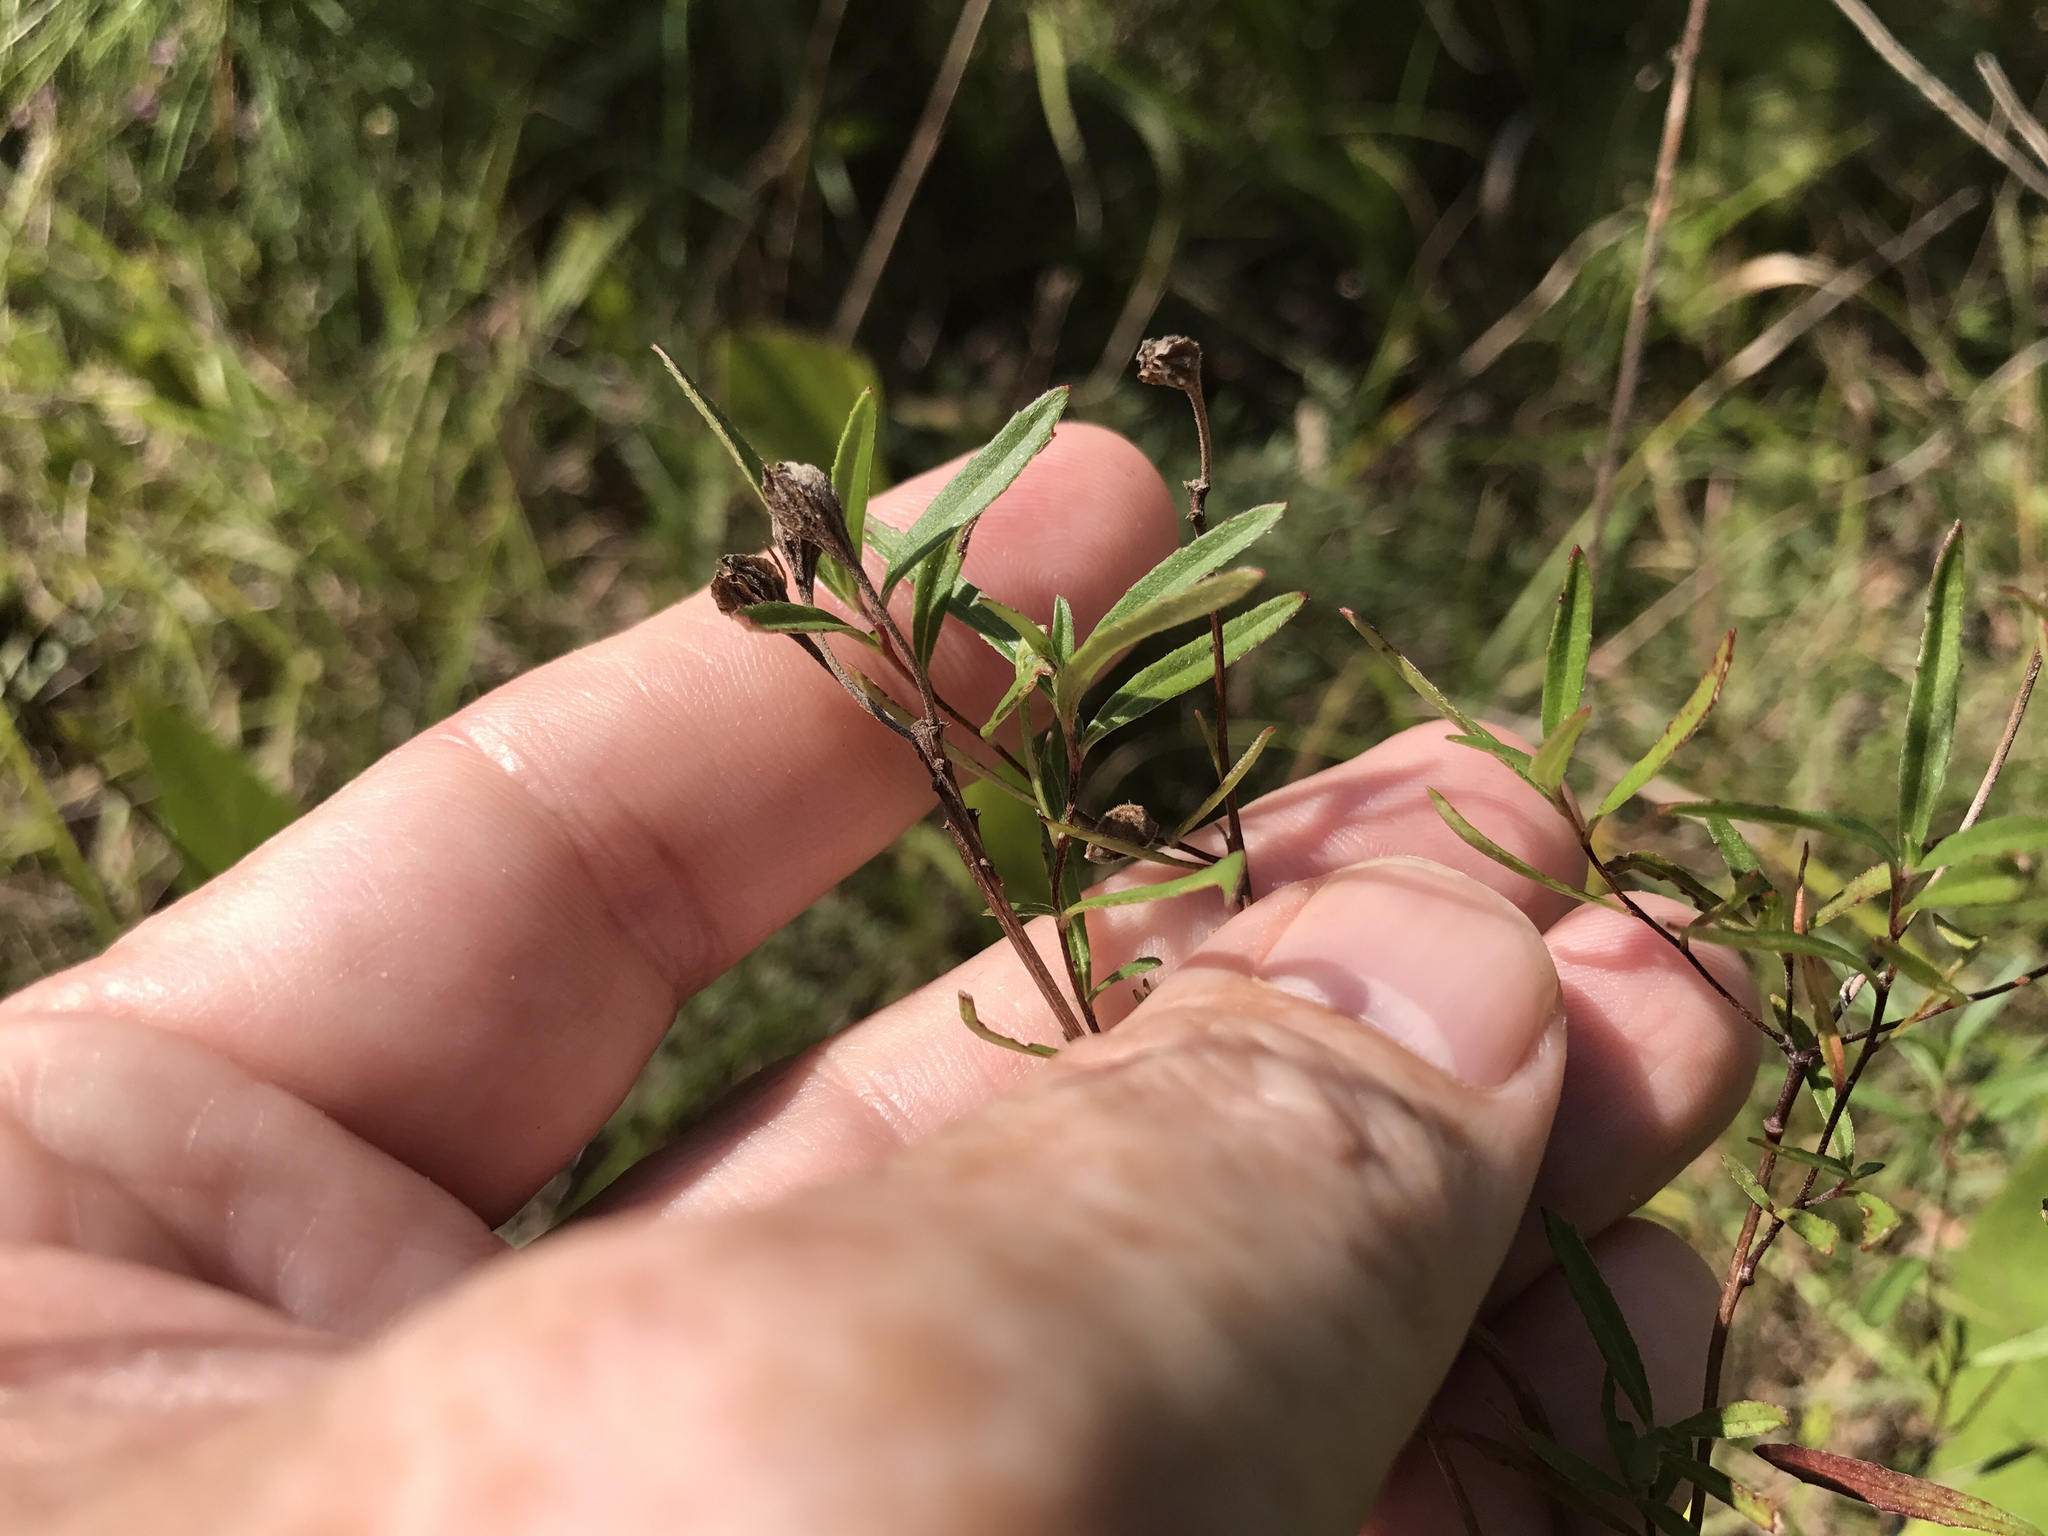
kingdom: Plantae
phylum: Tracheophyta
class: Magnoliopsida
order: Myrtales
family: Onagraceae
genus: Oenothera
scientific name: Oenothera fruticosa
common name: Southern sundrops
